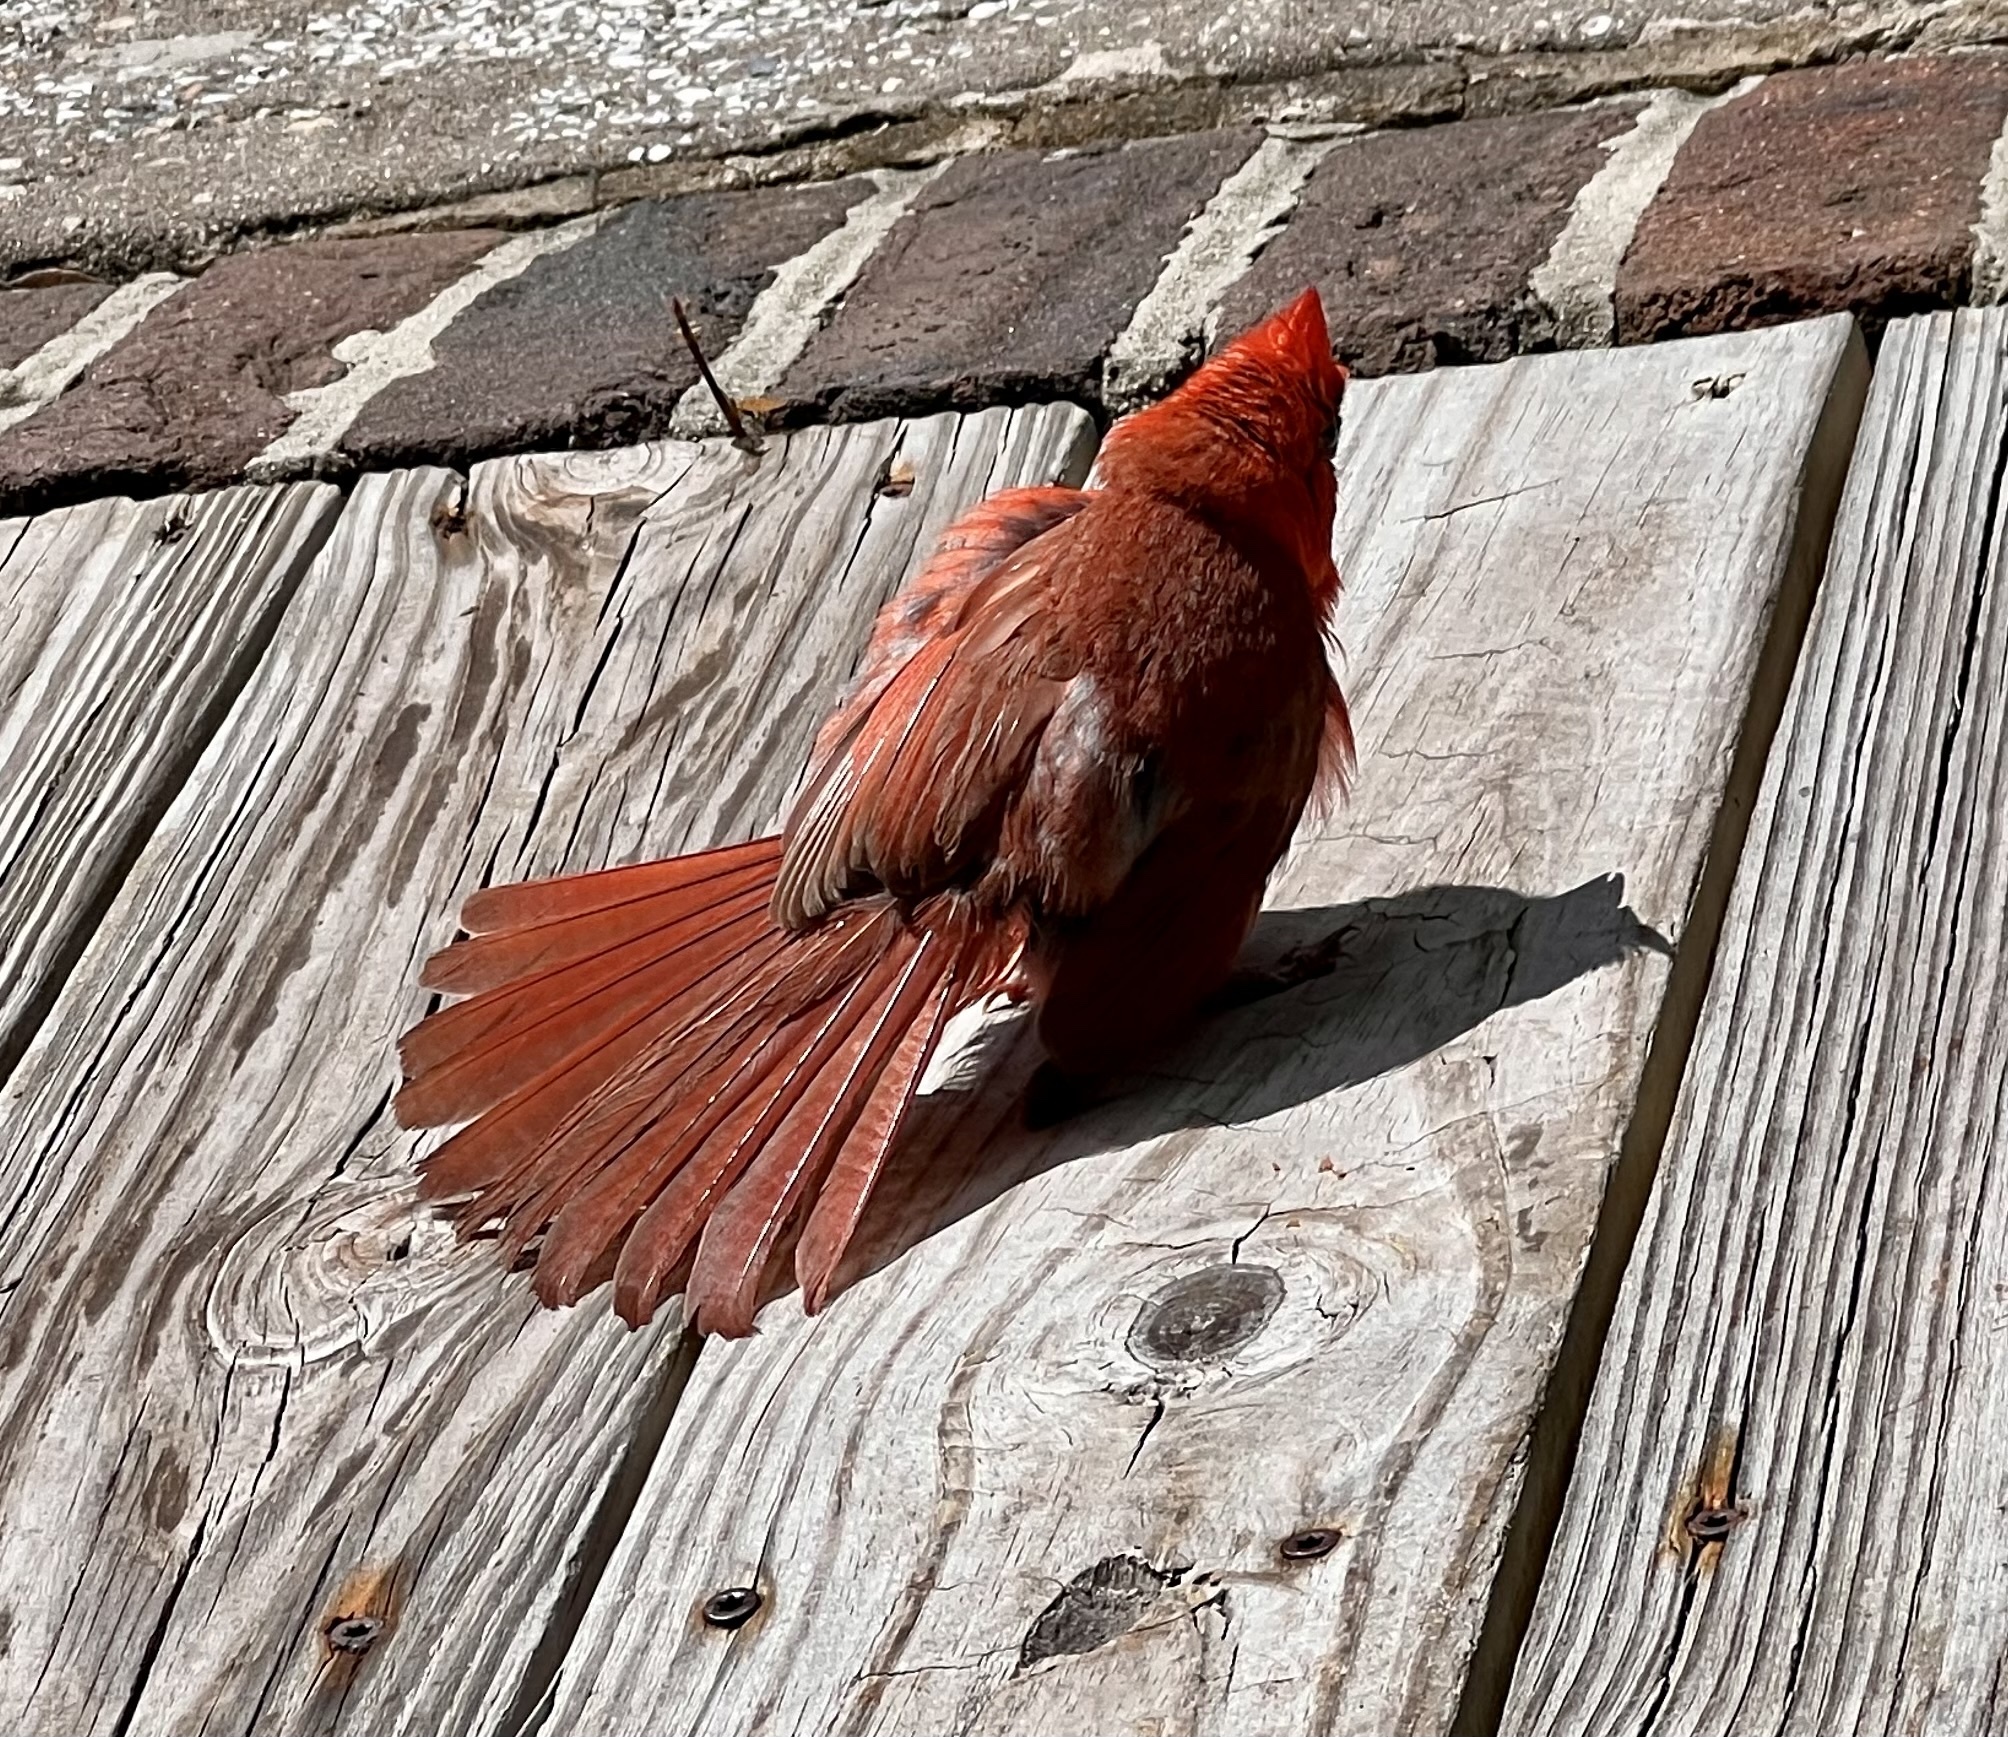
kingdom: Animalia
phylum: Chordata
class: Aves
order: Passeriformes
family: Cardinalidae
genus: Cardinalis
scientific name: Cardinalis cardinalis
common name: Northern cardinal
